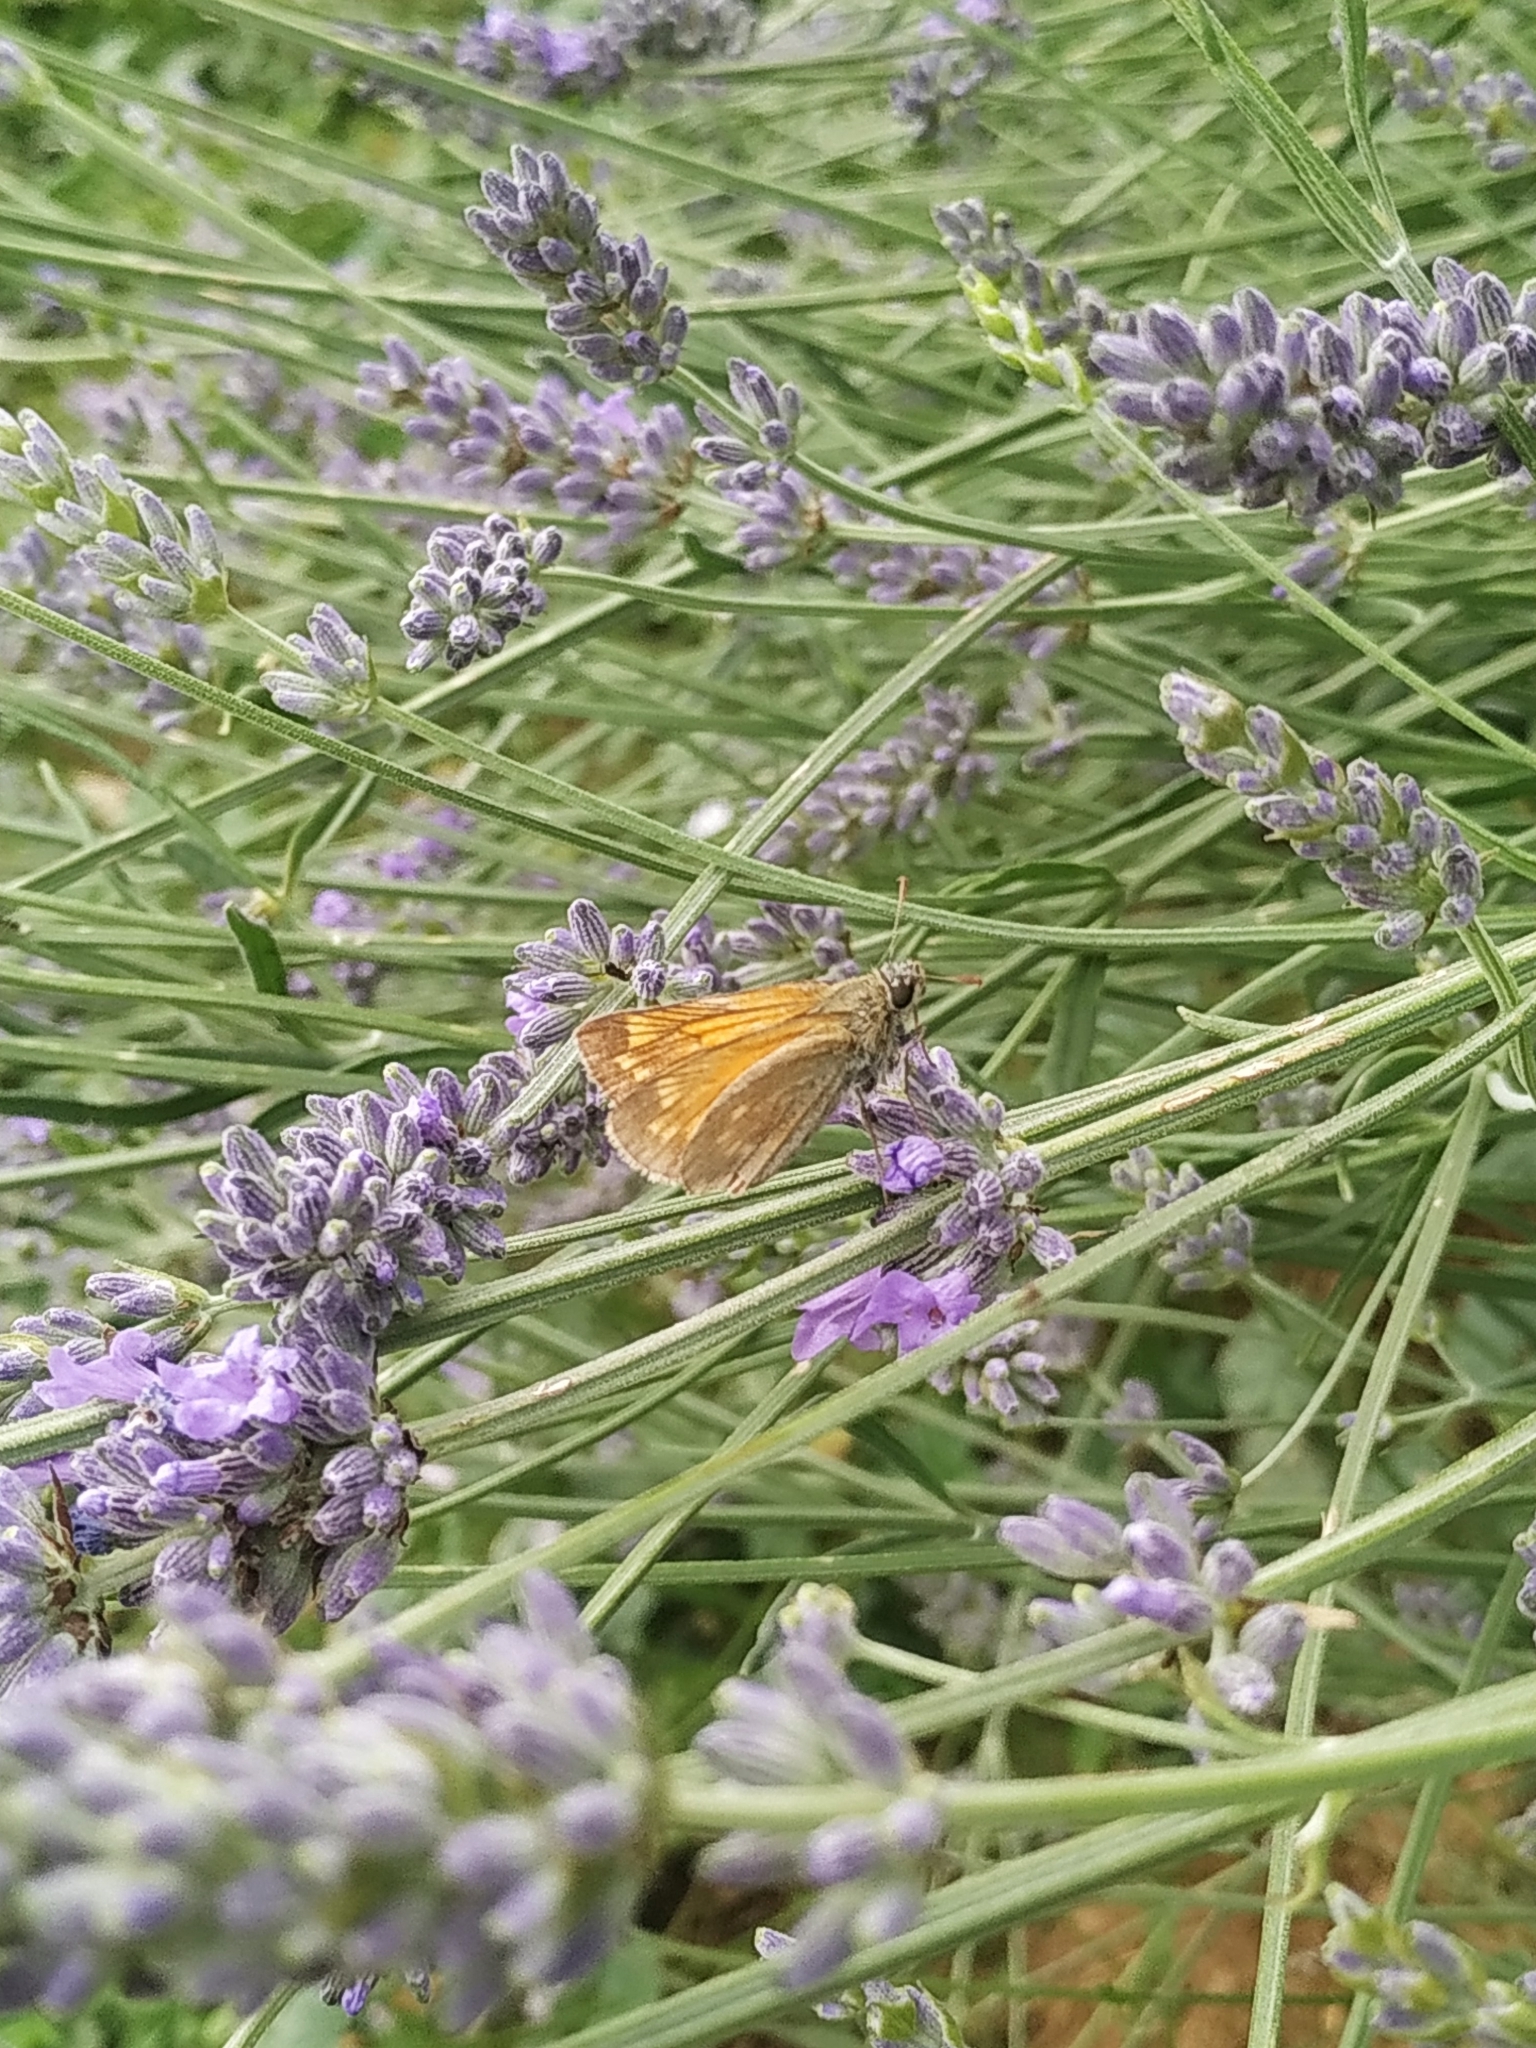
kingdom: Animalia
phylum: Arthropoda
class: Insecta
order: Lepidoptera
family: Hesperiidae
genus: Ochlodes
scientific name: Ochlodes venata
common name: Large skipper
